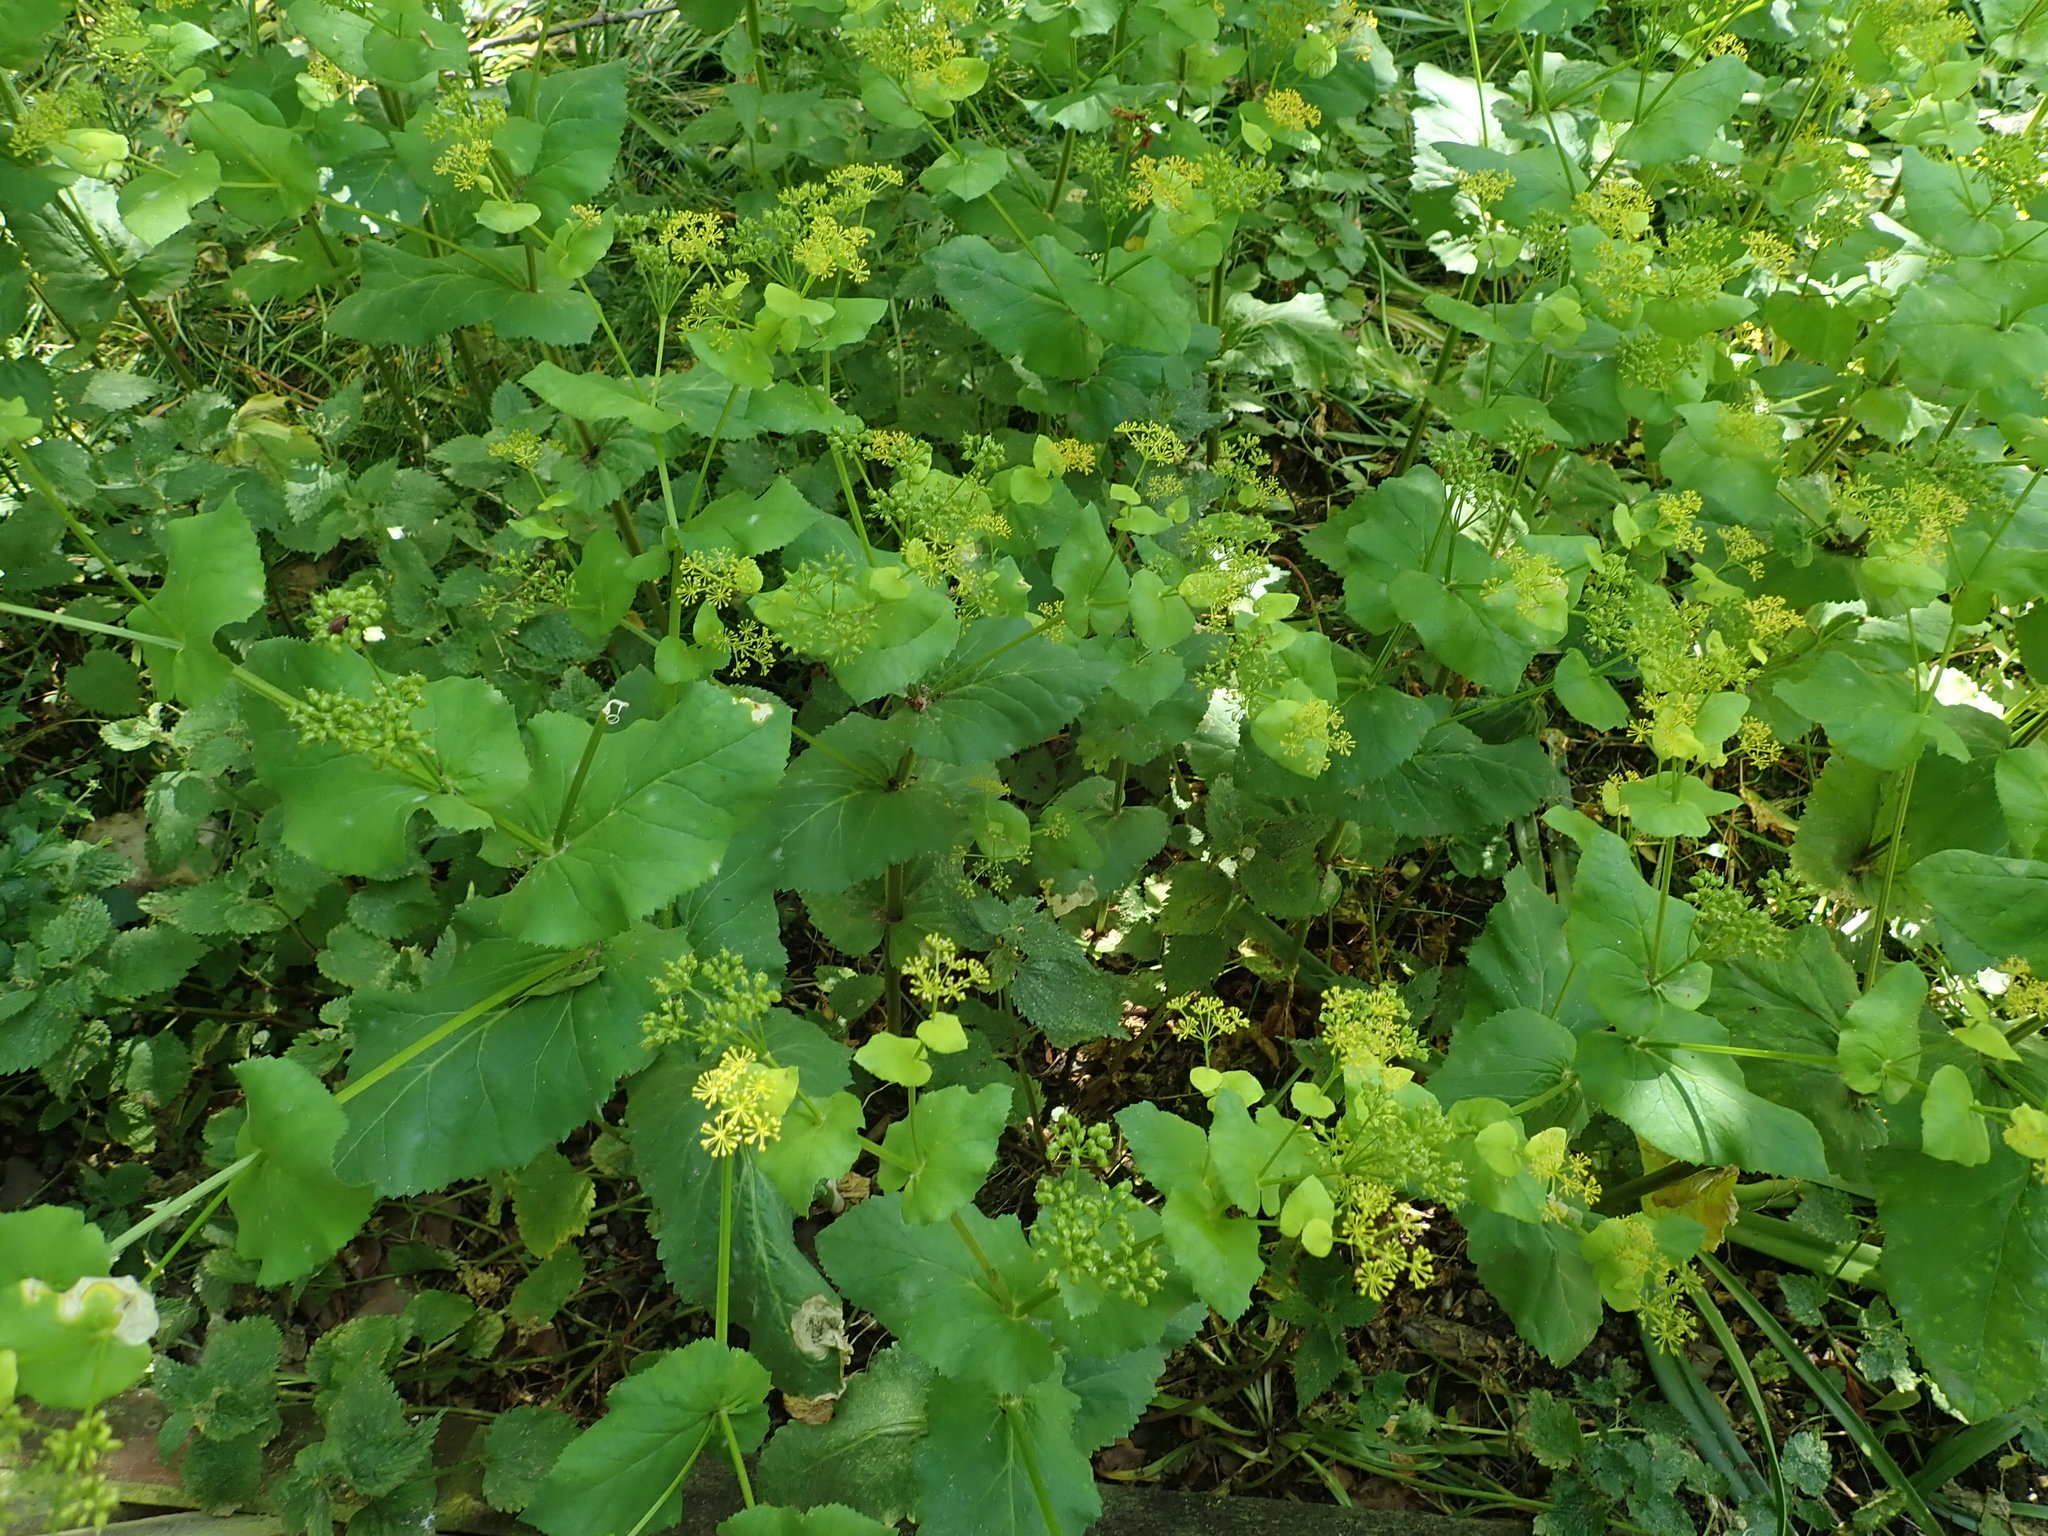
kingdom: Plantae
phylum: Tracheophyta
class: Magnoliopsida
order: Apiales
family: Apiaceae
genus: Smyrnium
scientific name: Smyrnium perfoliatum
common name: Perfoliate alexanders
